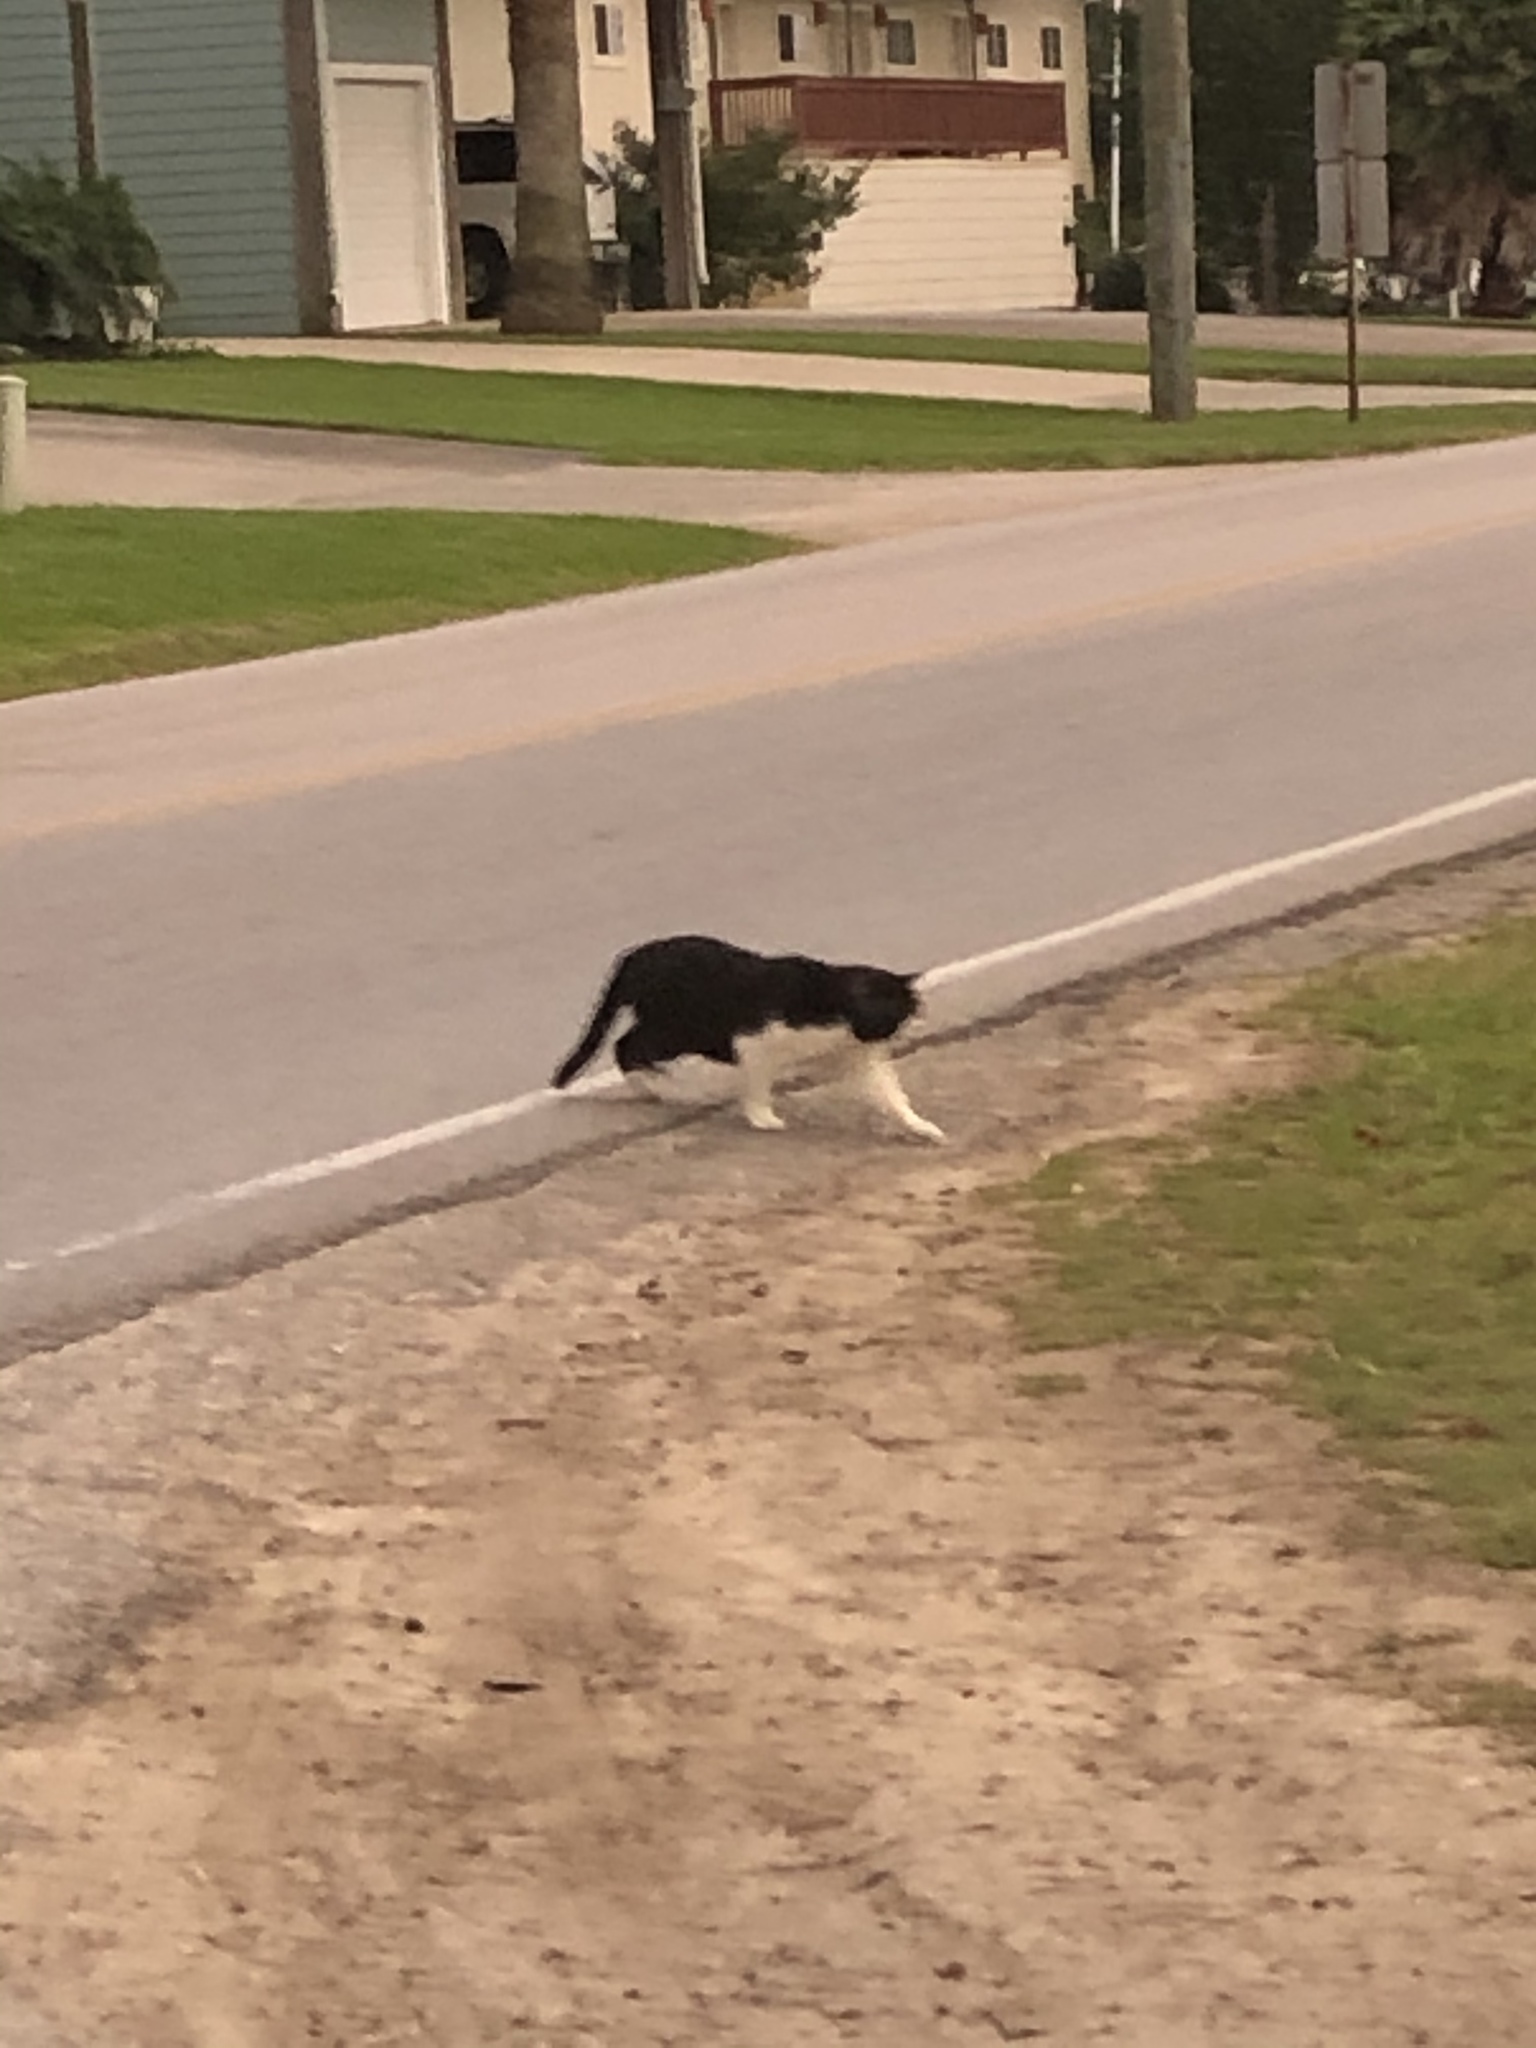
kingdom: Animalia
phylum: Chordata
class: Mammalia
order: Carnivora
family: Felidae
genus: Felis
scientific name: Felis catus
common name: Domestic cat
